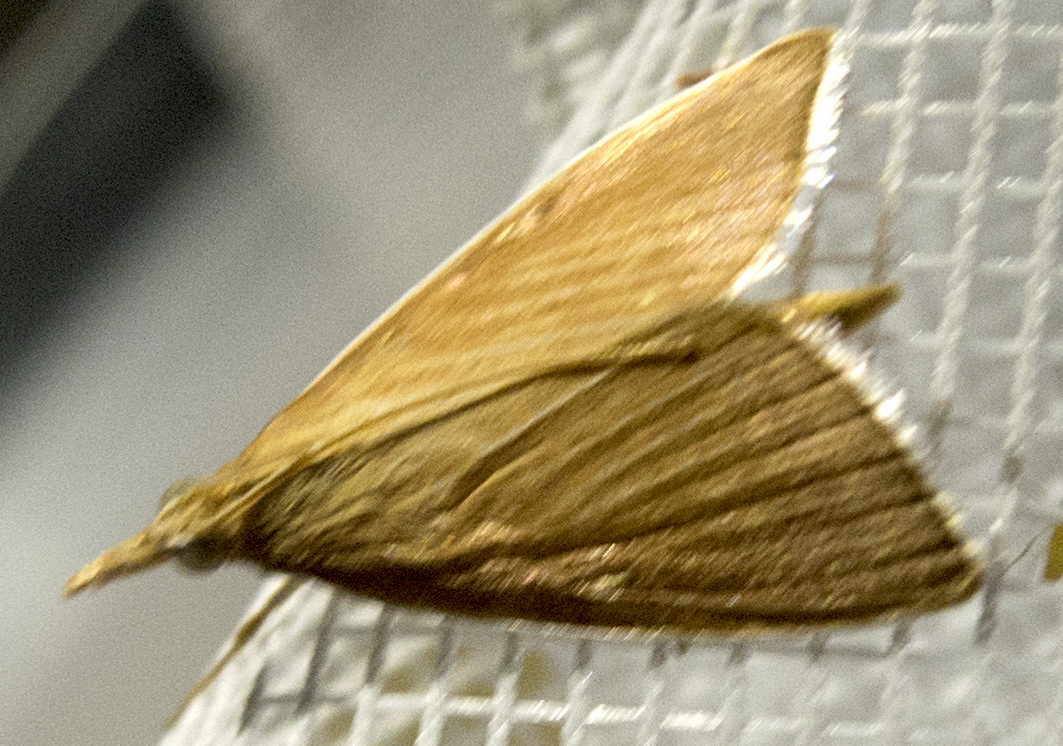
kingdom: Animalia
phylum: Arthropoda
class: Insecta
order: Lepidoptera
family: Crambidae
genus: Calamochrous
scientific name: Calamochrous Sclerocona acutella
